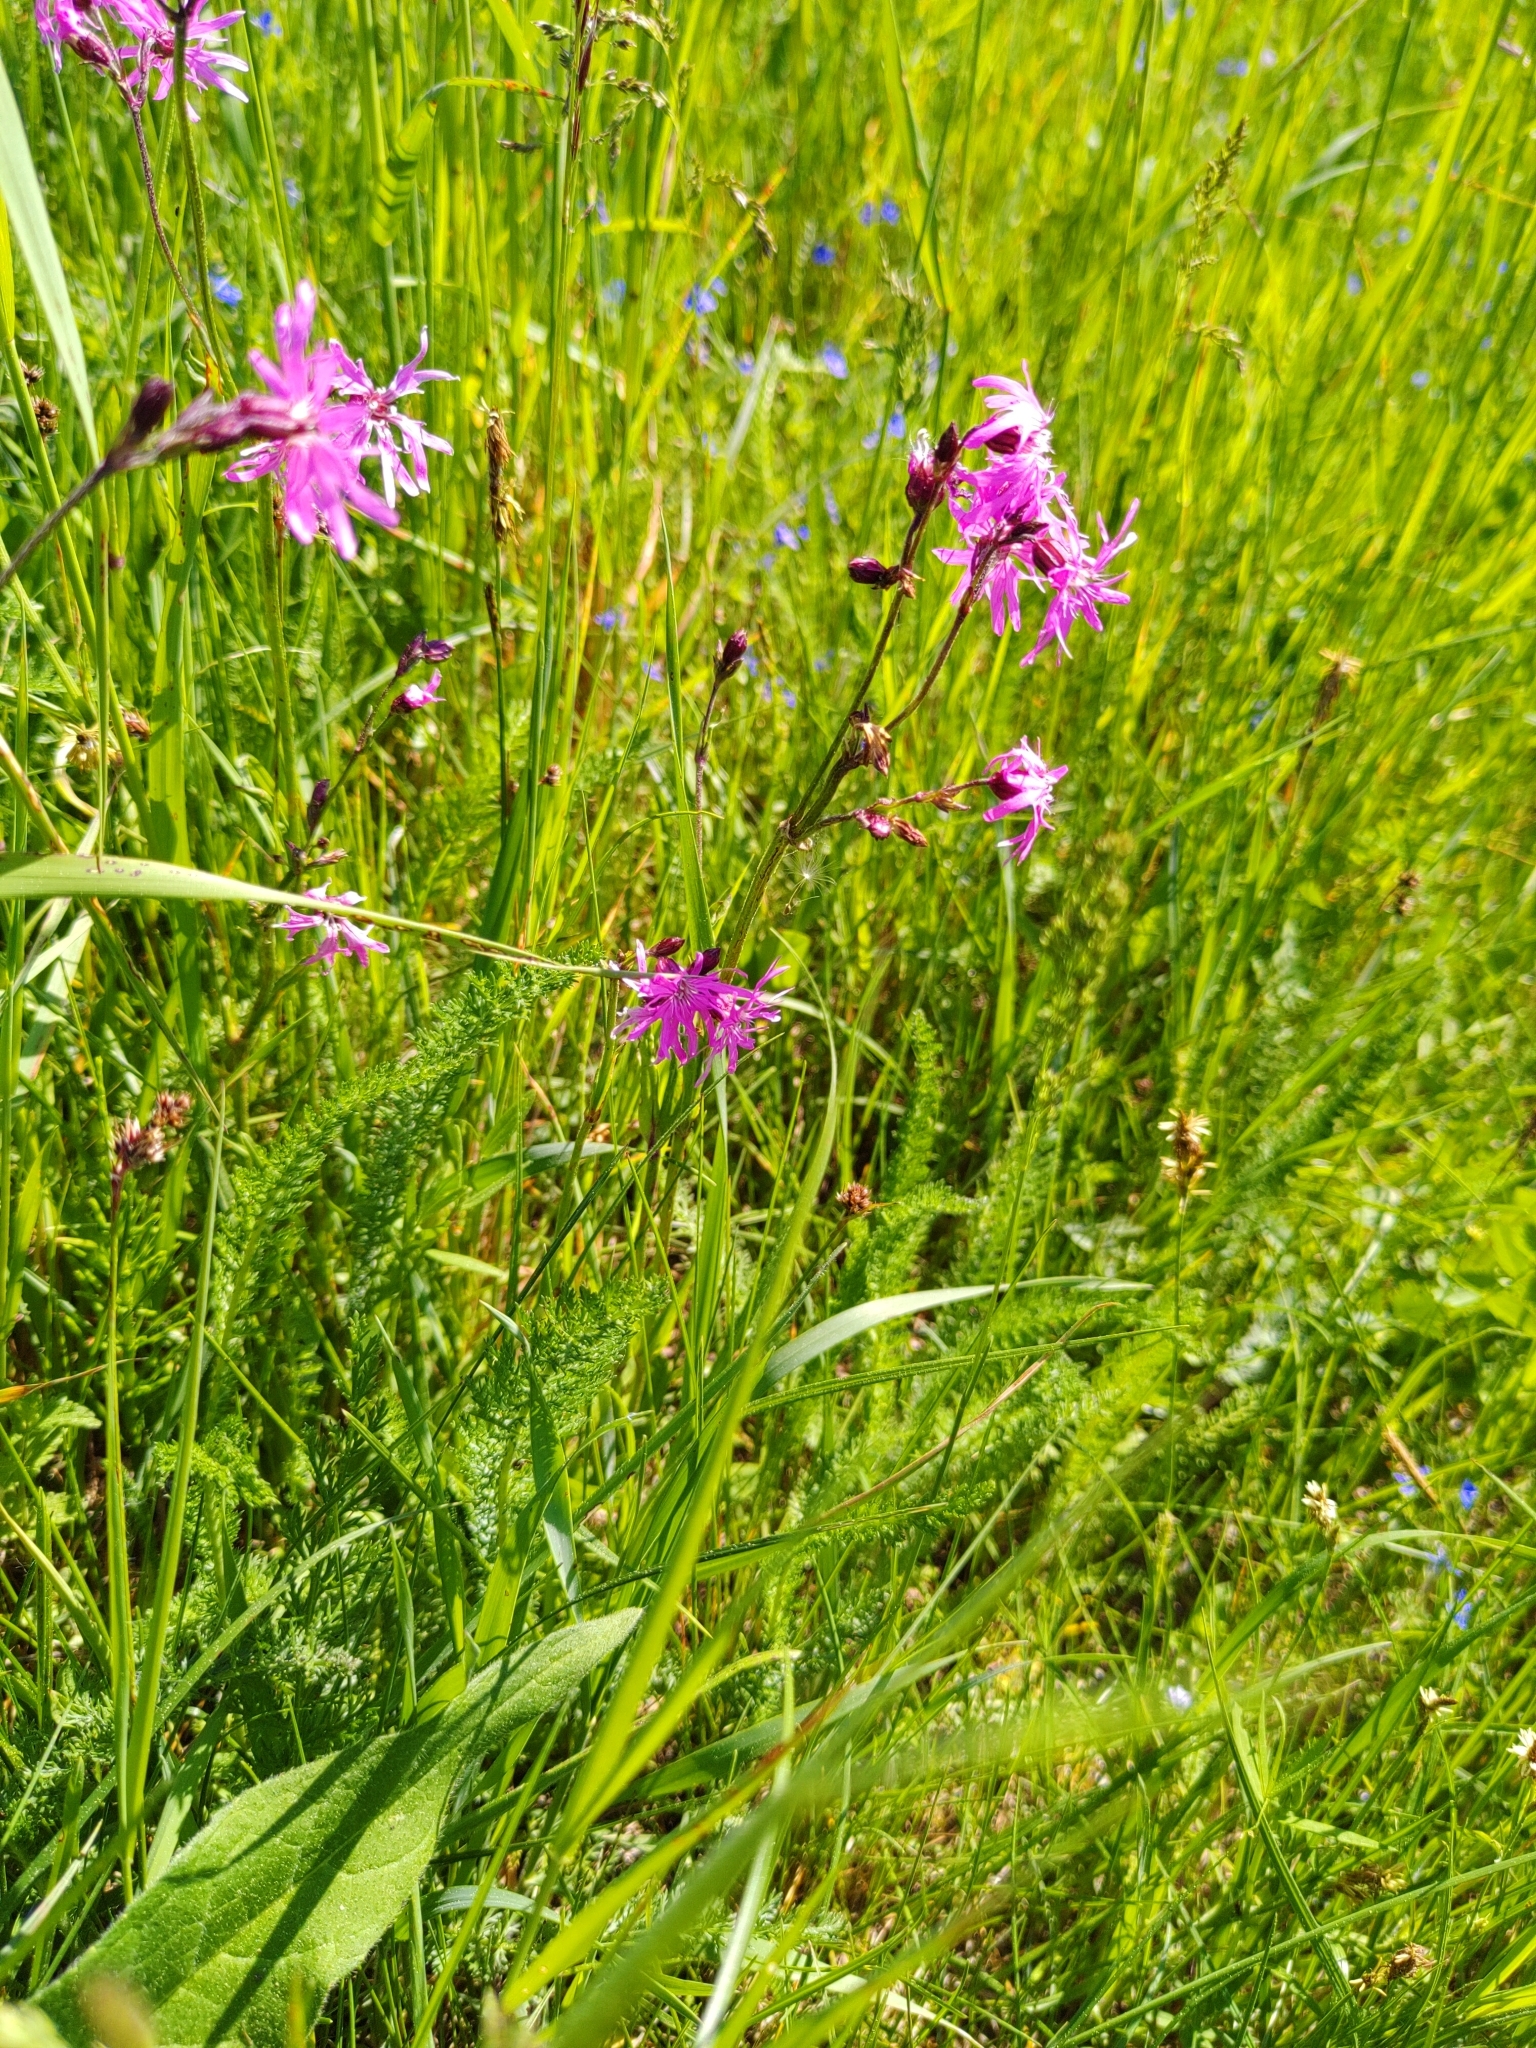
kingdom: Plantae
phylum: Tracheophyta
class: Magnoliopsida
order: Caryophyllales
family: Caryophyllaceae
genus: Silene
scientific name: Silene flos-cuculi
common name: Ragged-robin
